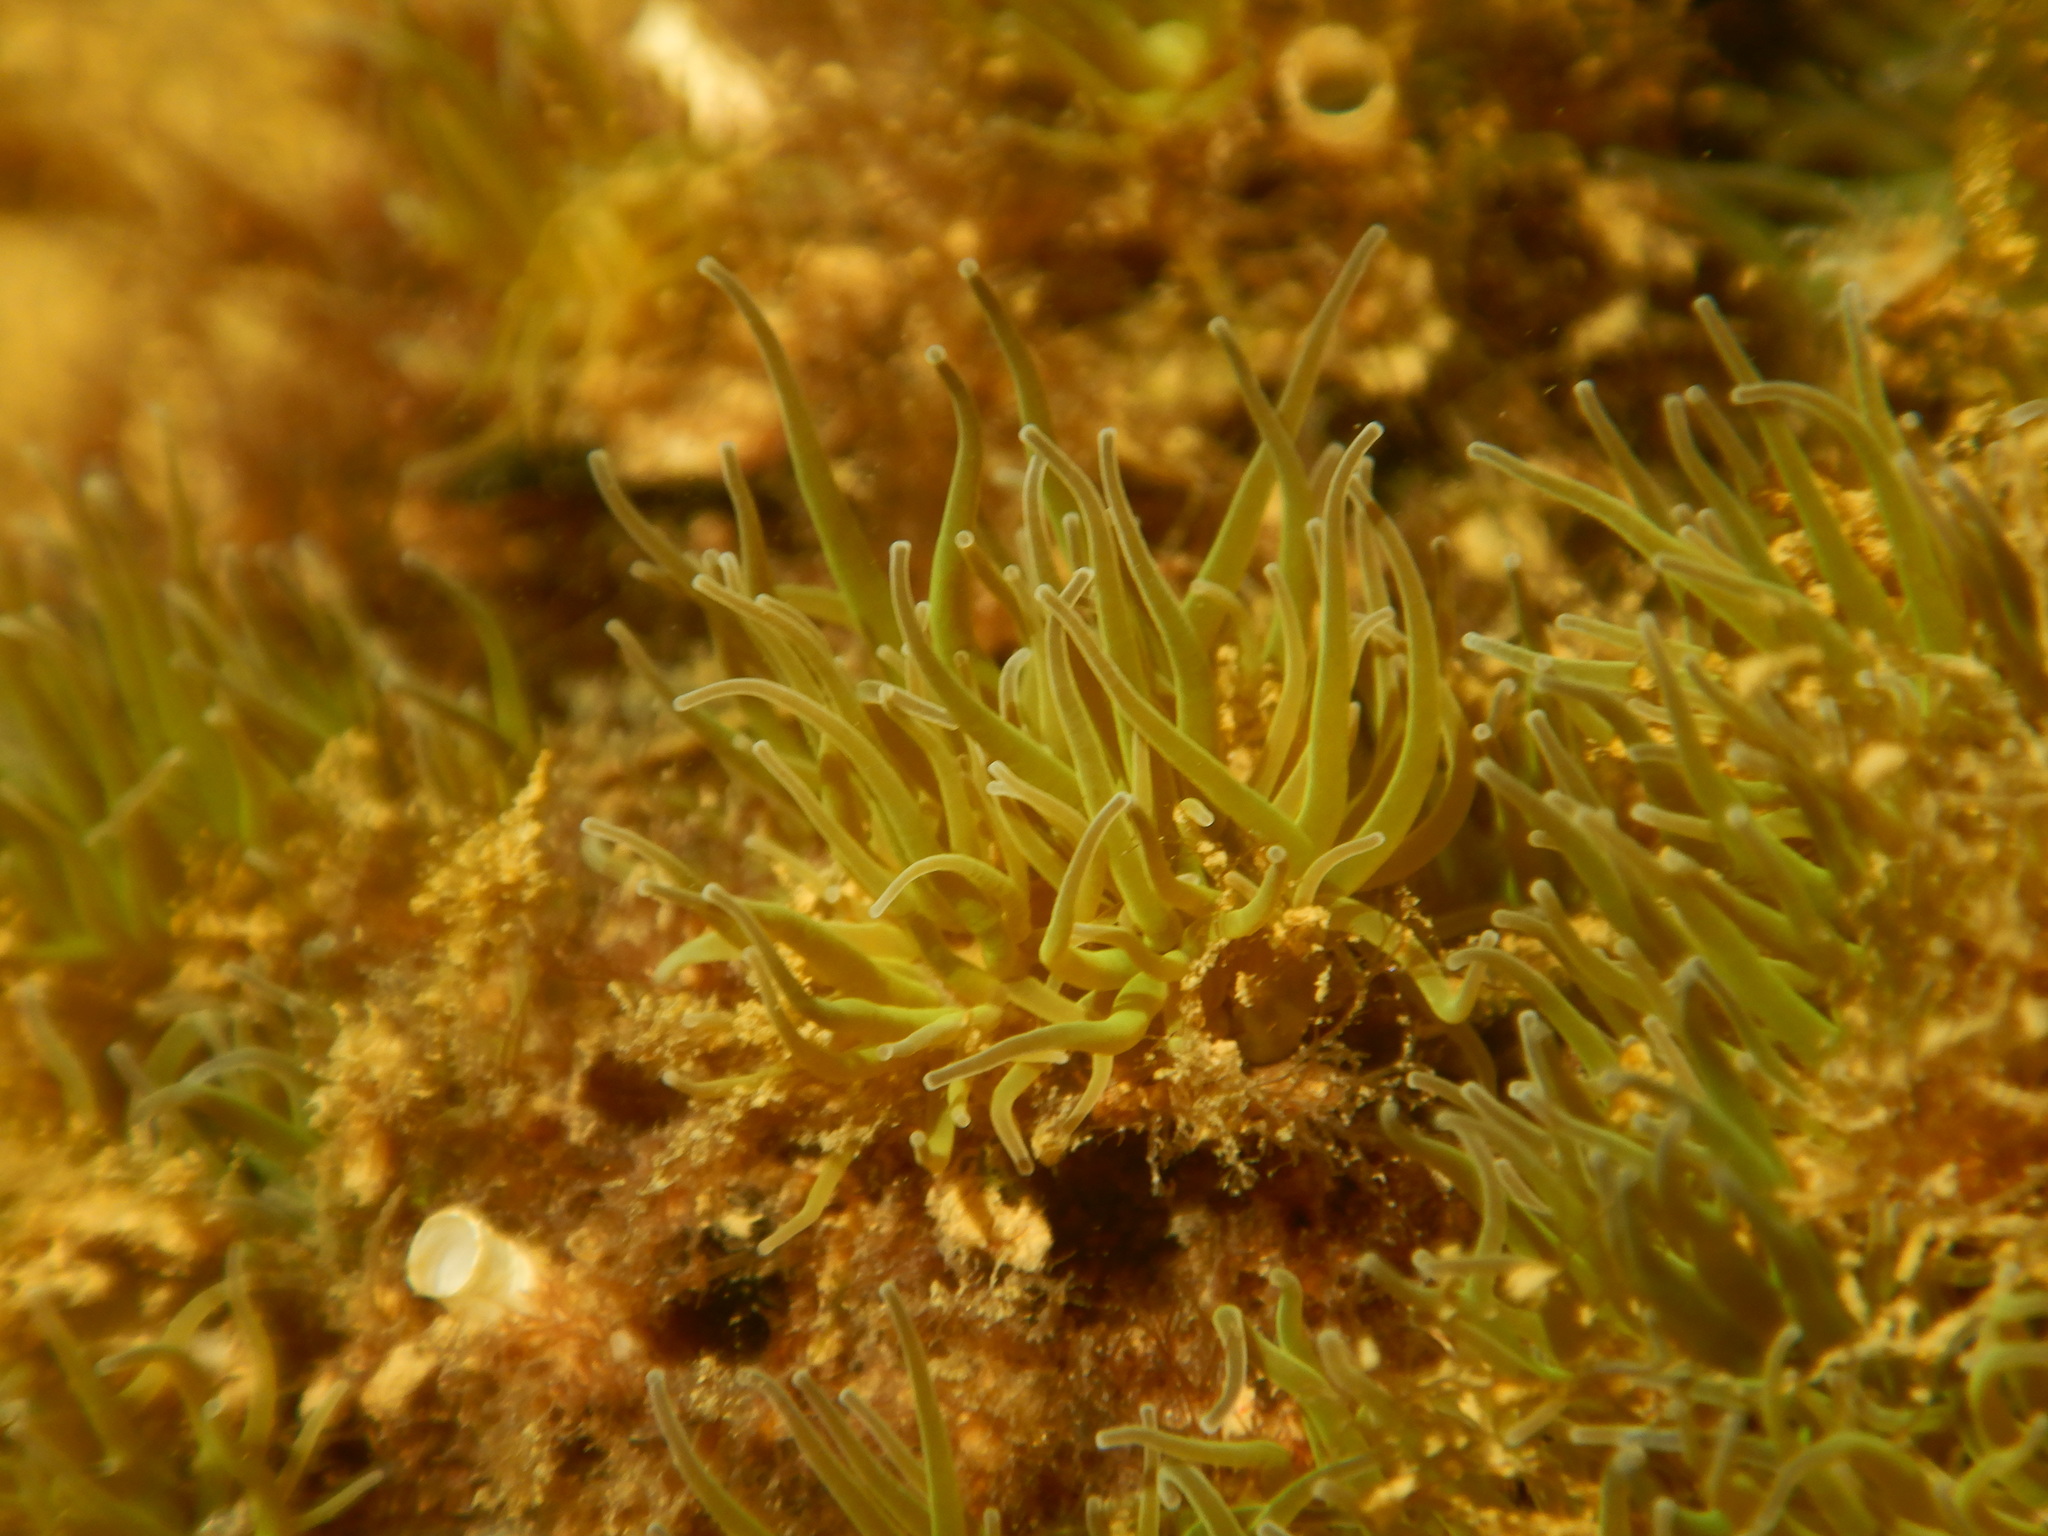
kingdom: Animalia
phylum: Cnidaria
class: Anthozoa
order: Actiniaria
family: Actiniidae
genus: Anemonia
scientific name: Anemonia viridis
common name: Snakelocks anemone
